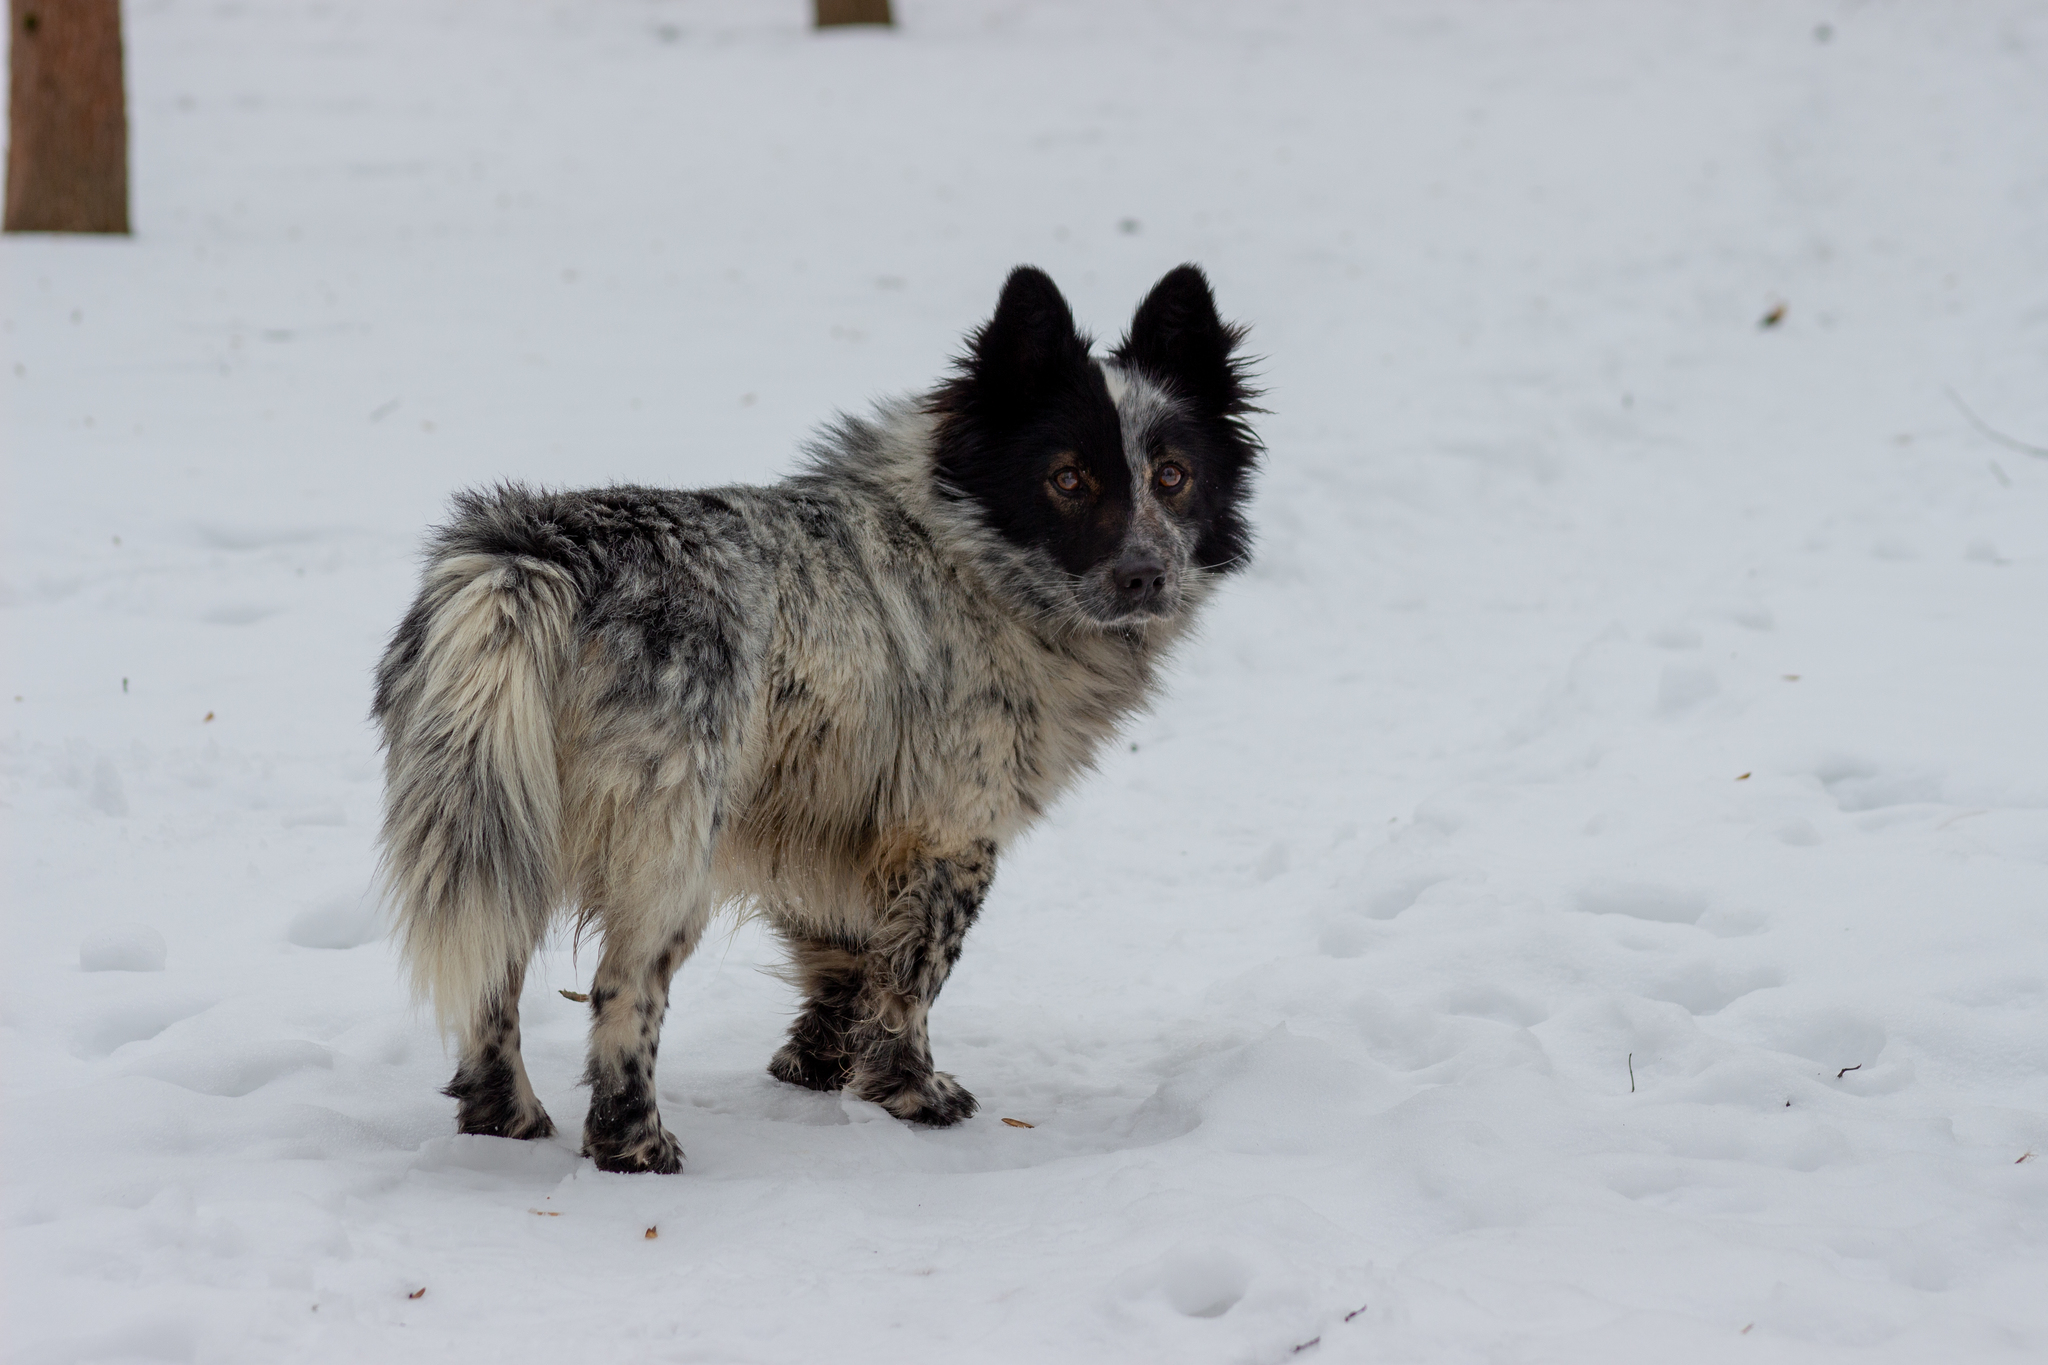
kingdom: Animalia
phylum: Chordata
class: Mammalia
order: Carnivora
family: Canidae
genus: Canis
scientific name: Canis lupus
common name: Gray wolf
